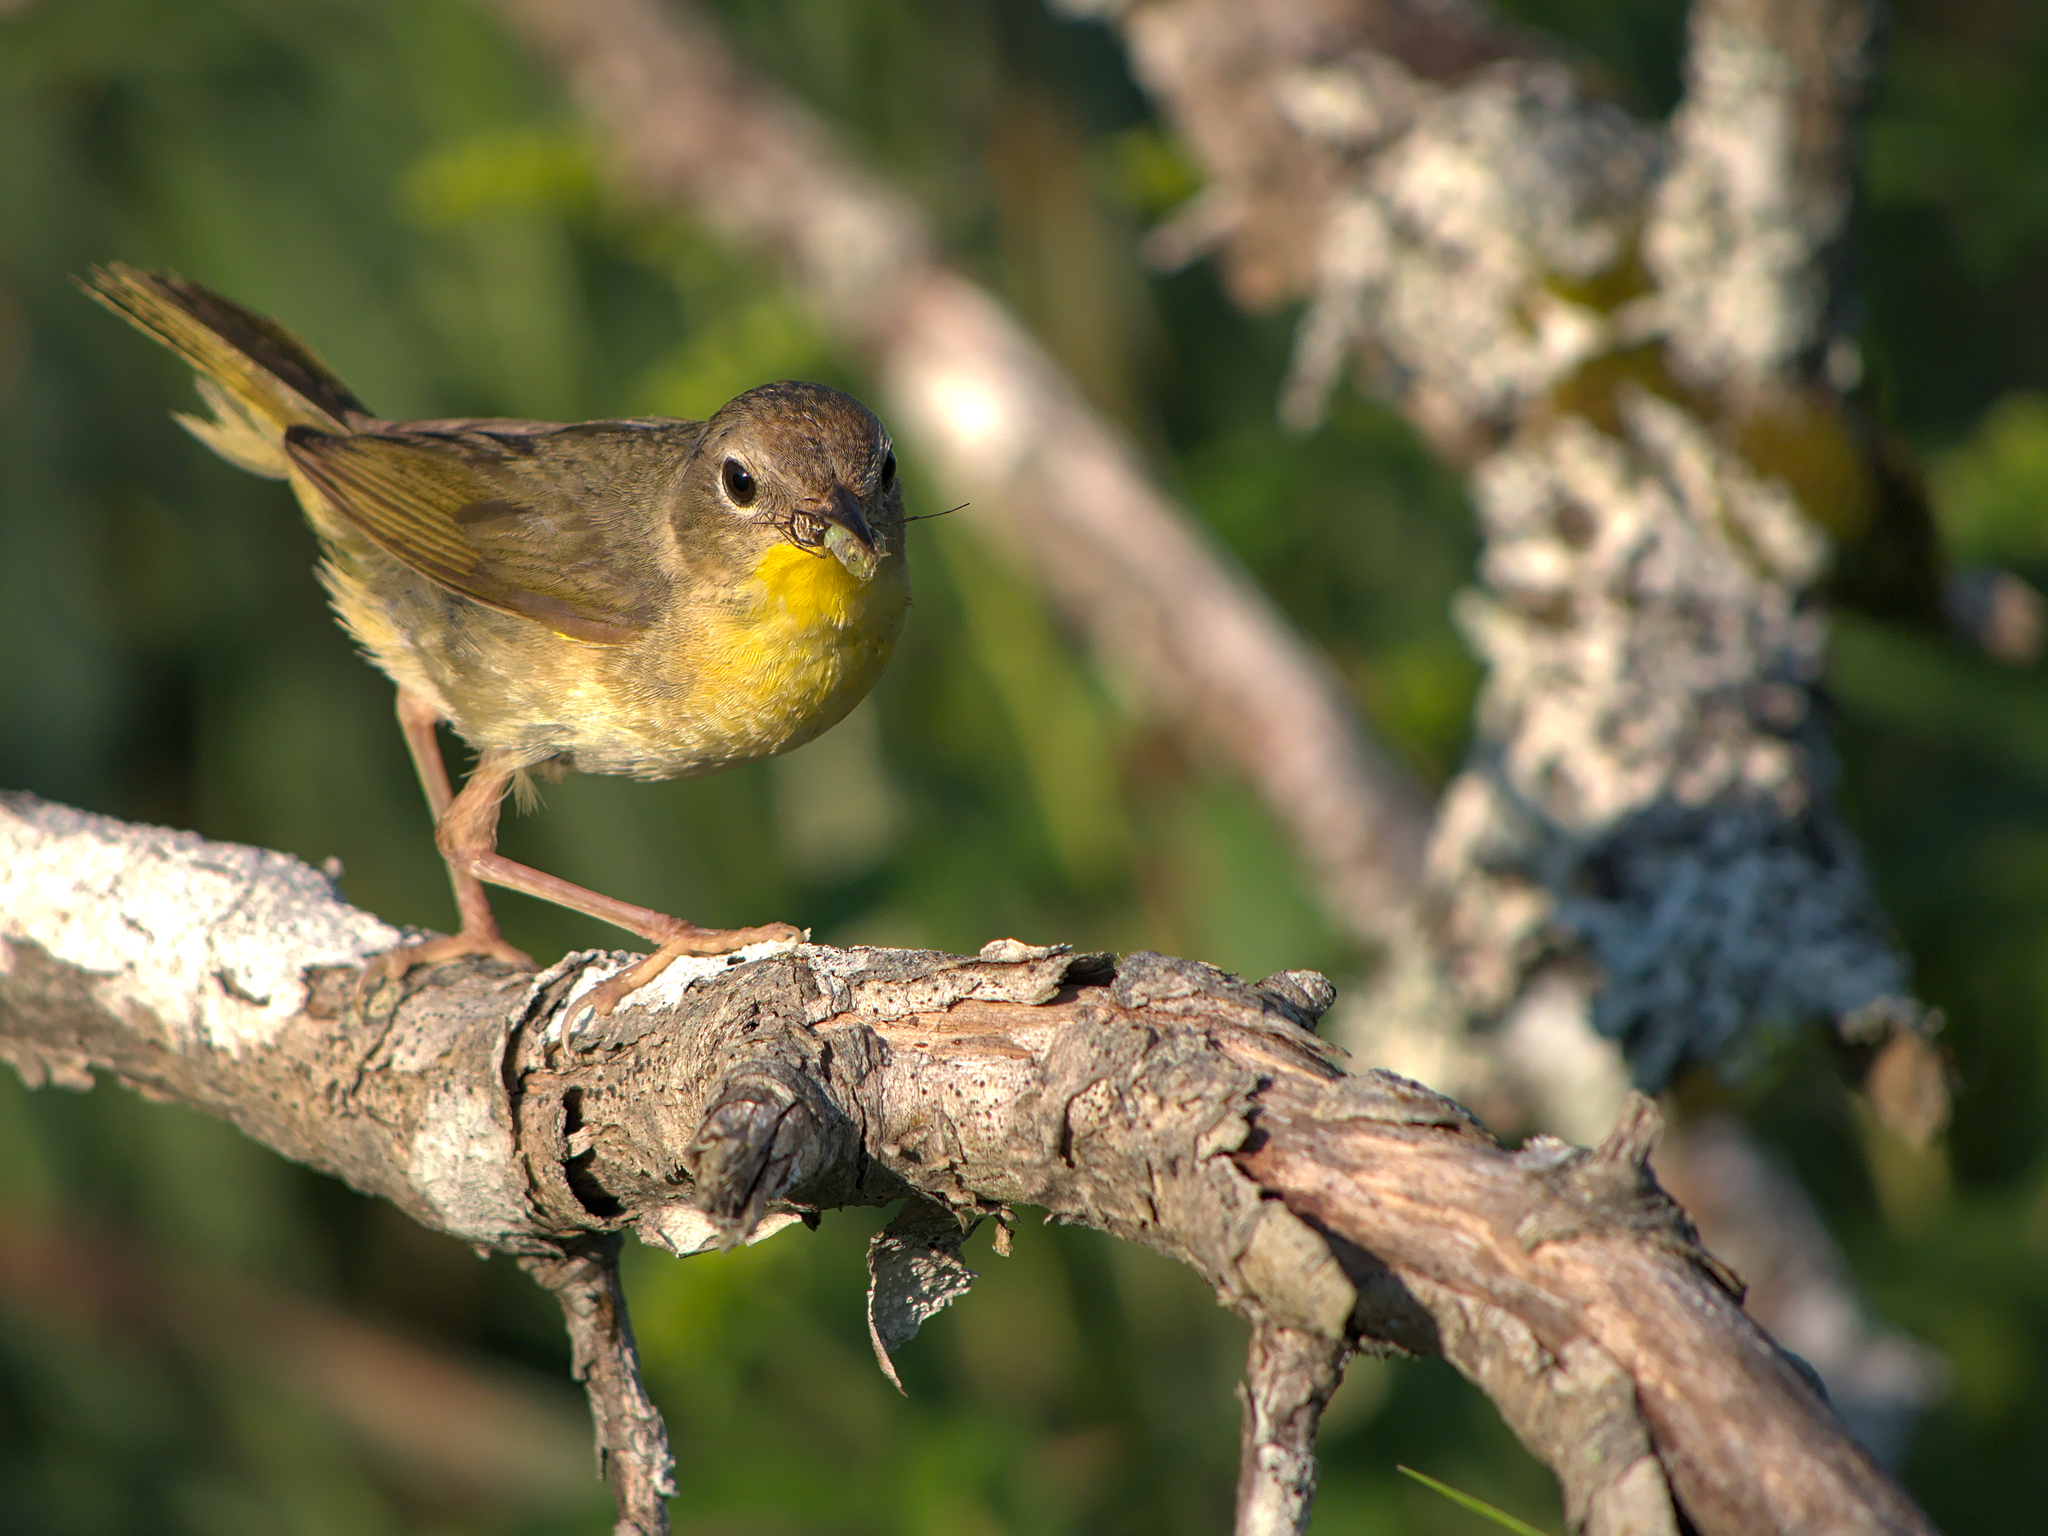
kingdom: Animalia
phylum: Chordata
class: Aves
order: Passeriformes
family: Parulidae
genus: Geothlypis
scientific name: Geothlypis trichas
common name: Common yellowthroat
